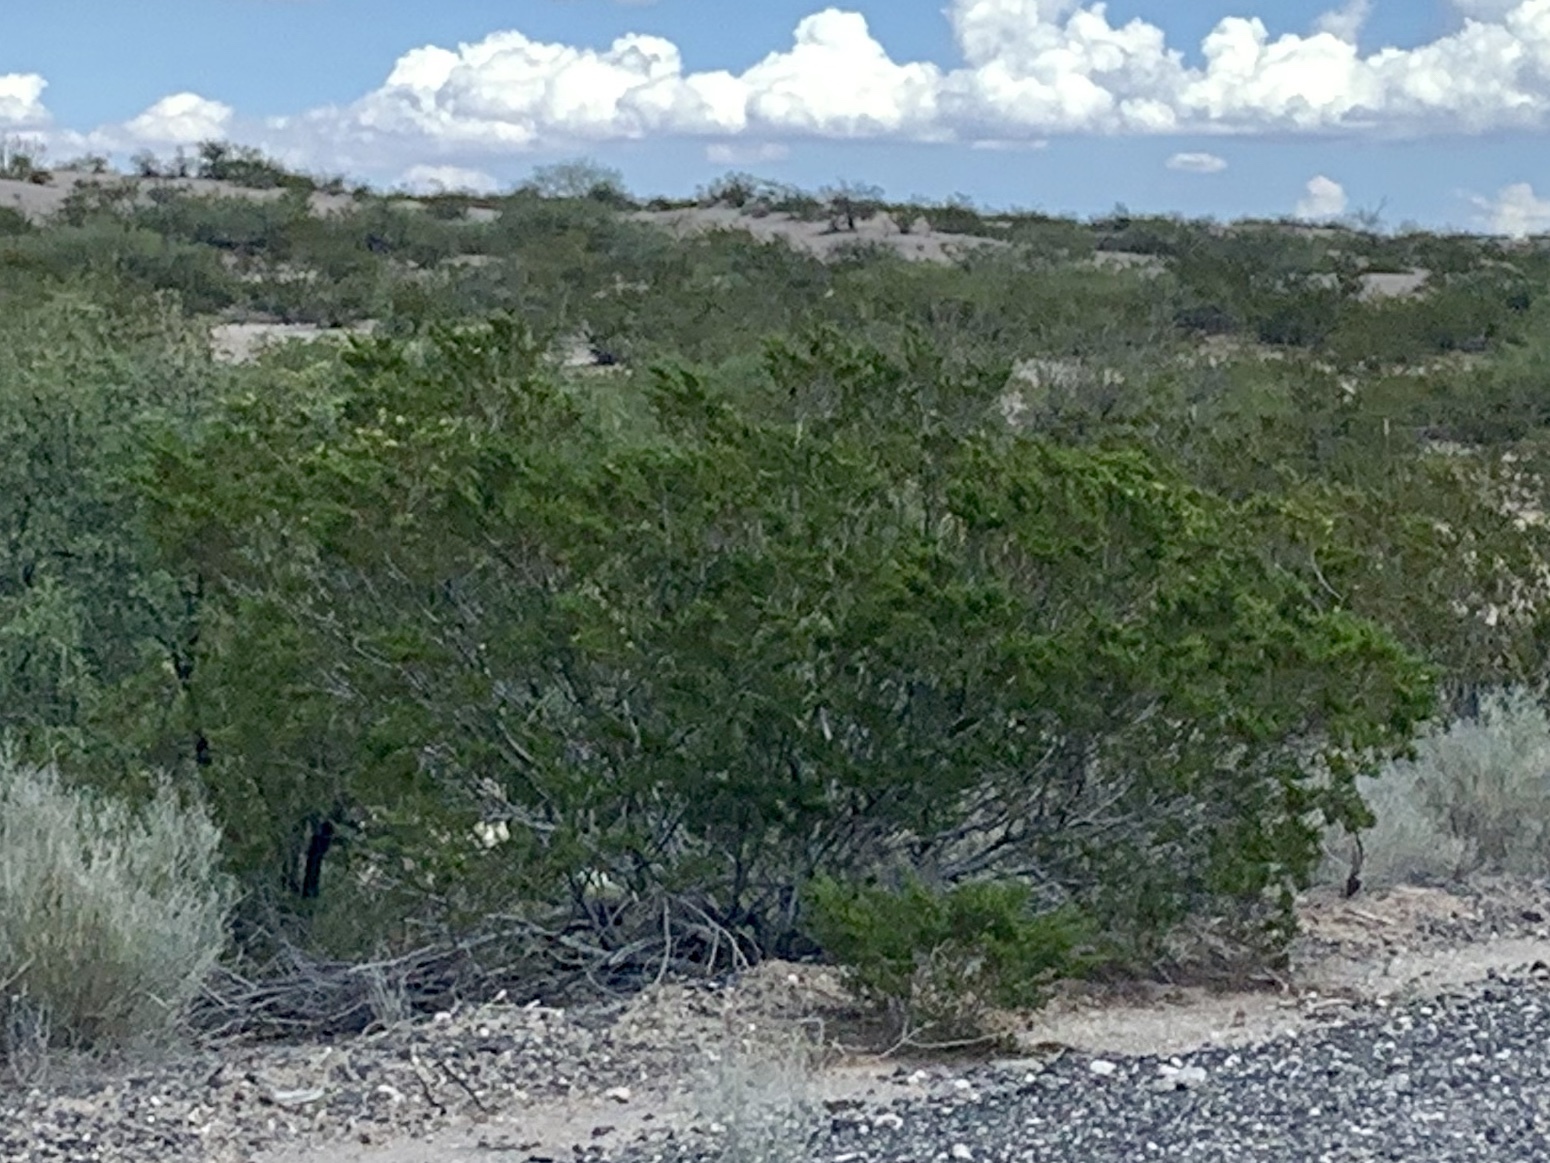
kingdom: Plantae
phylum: Tracheophyta
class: Magnoliopsida
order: Zygophyllales
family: Zygophyllaceae
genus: Larrea
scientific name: Larrea tridentata
